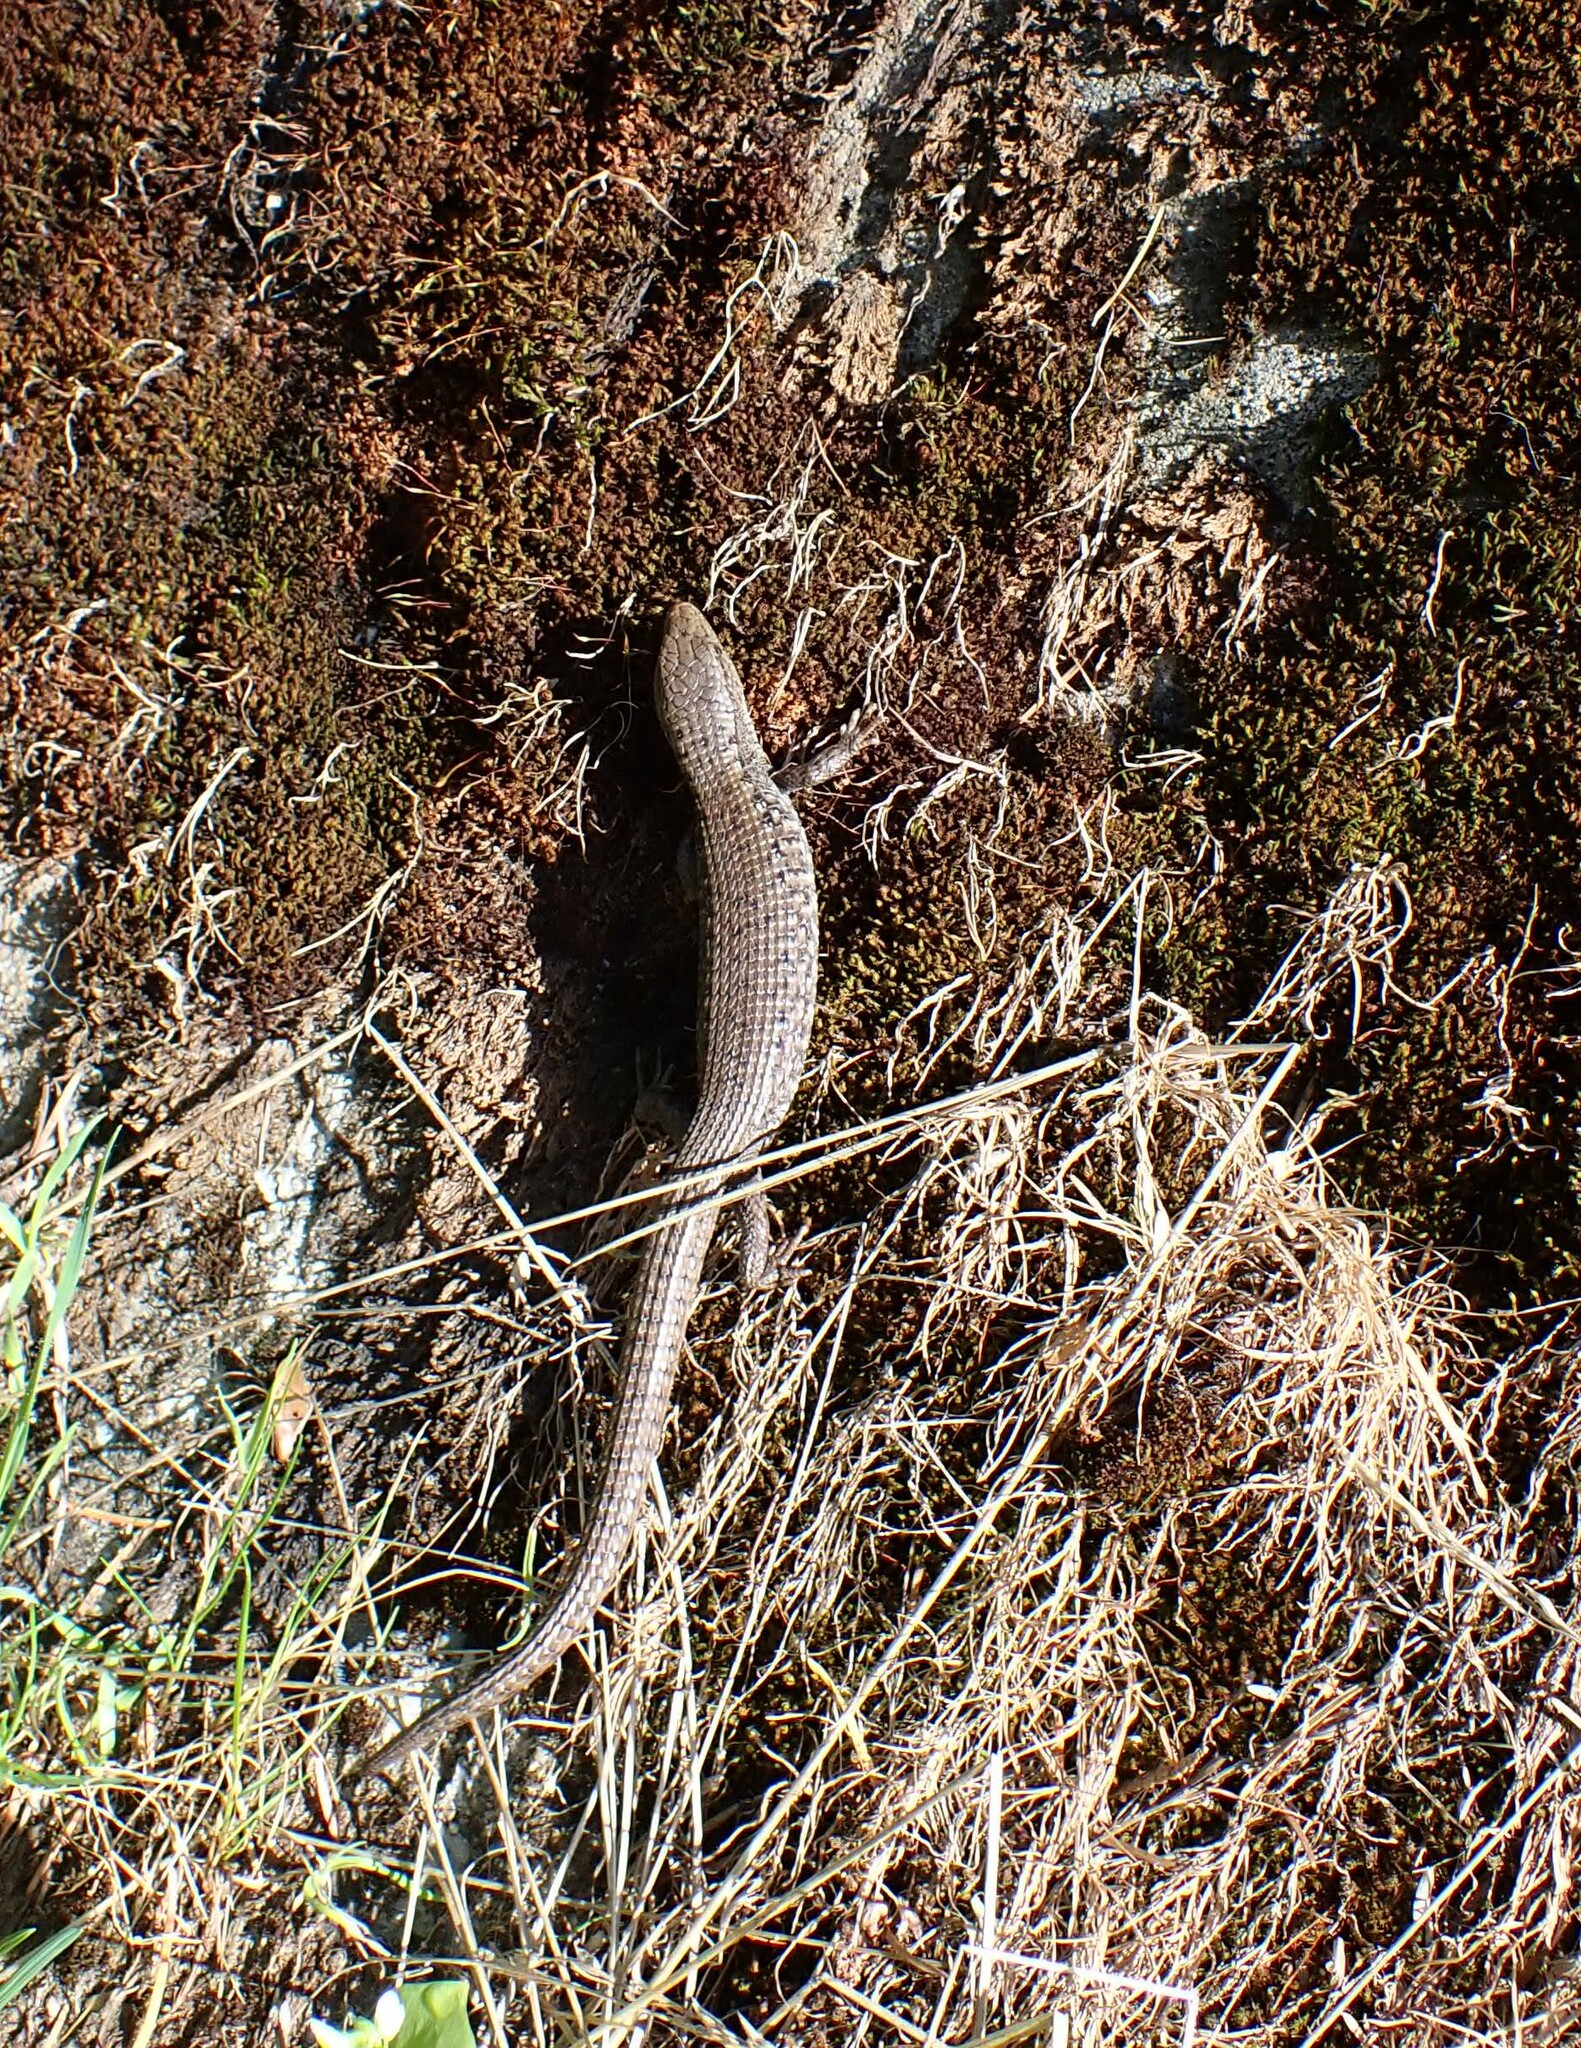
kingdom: Animalia
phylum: Chordata
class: Squamata
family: Anguidae
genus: Elgaria
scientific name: Elgaria coerulea
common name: Northern alligator lizard
